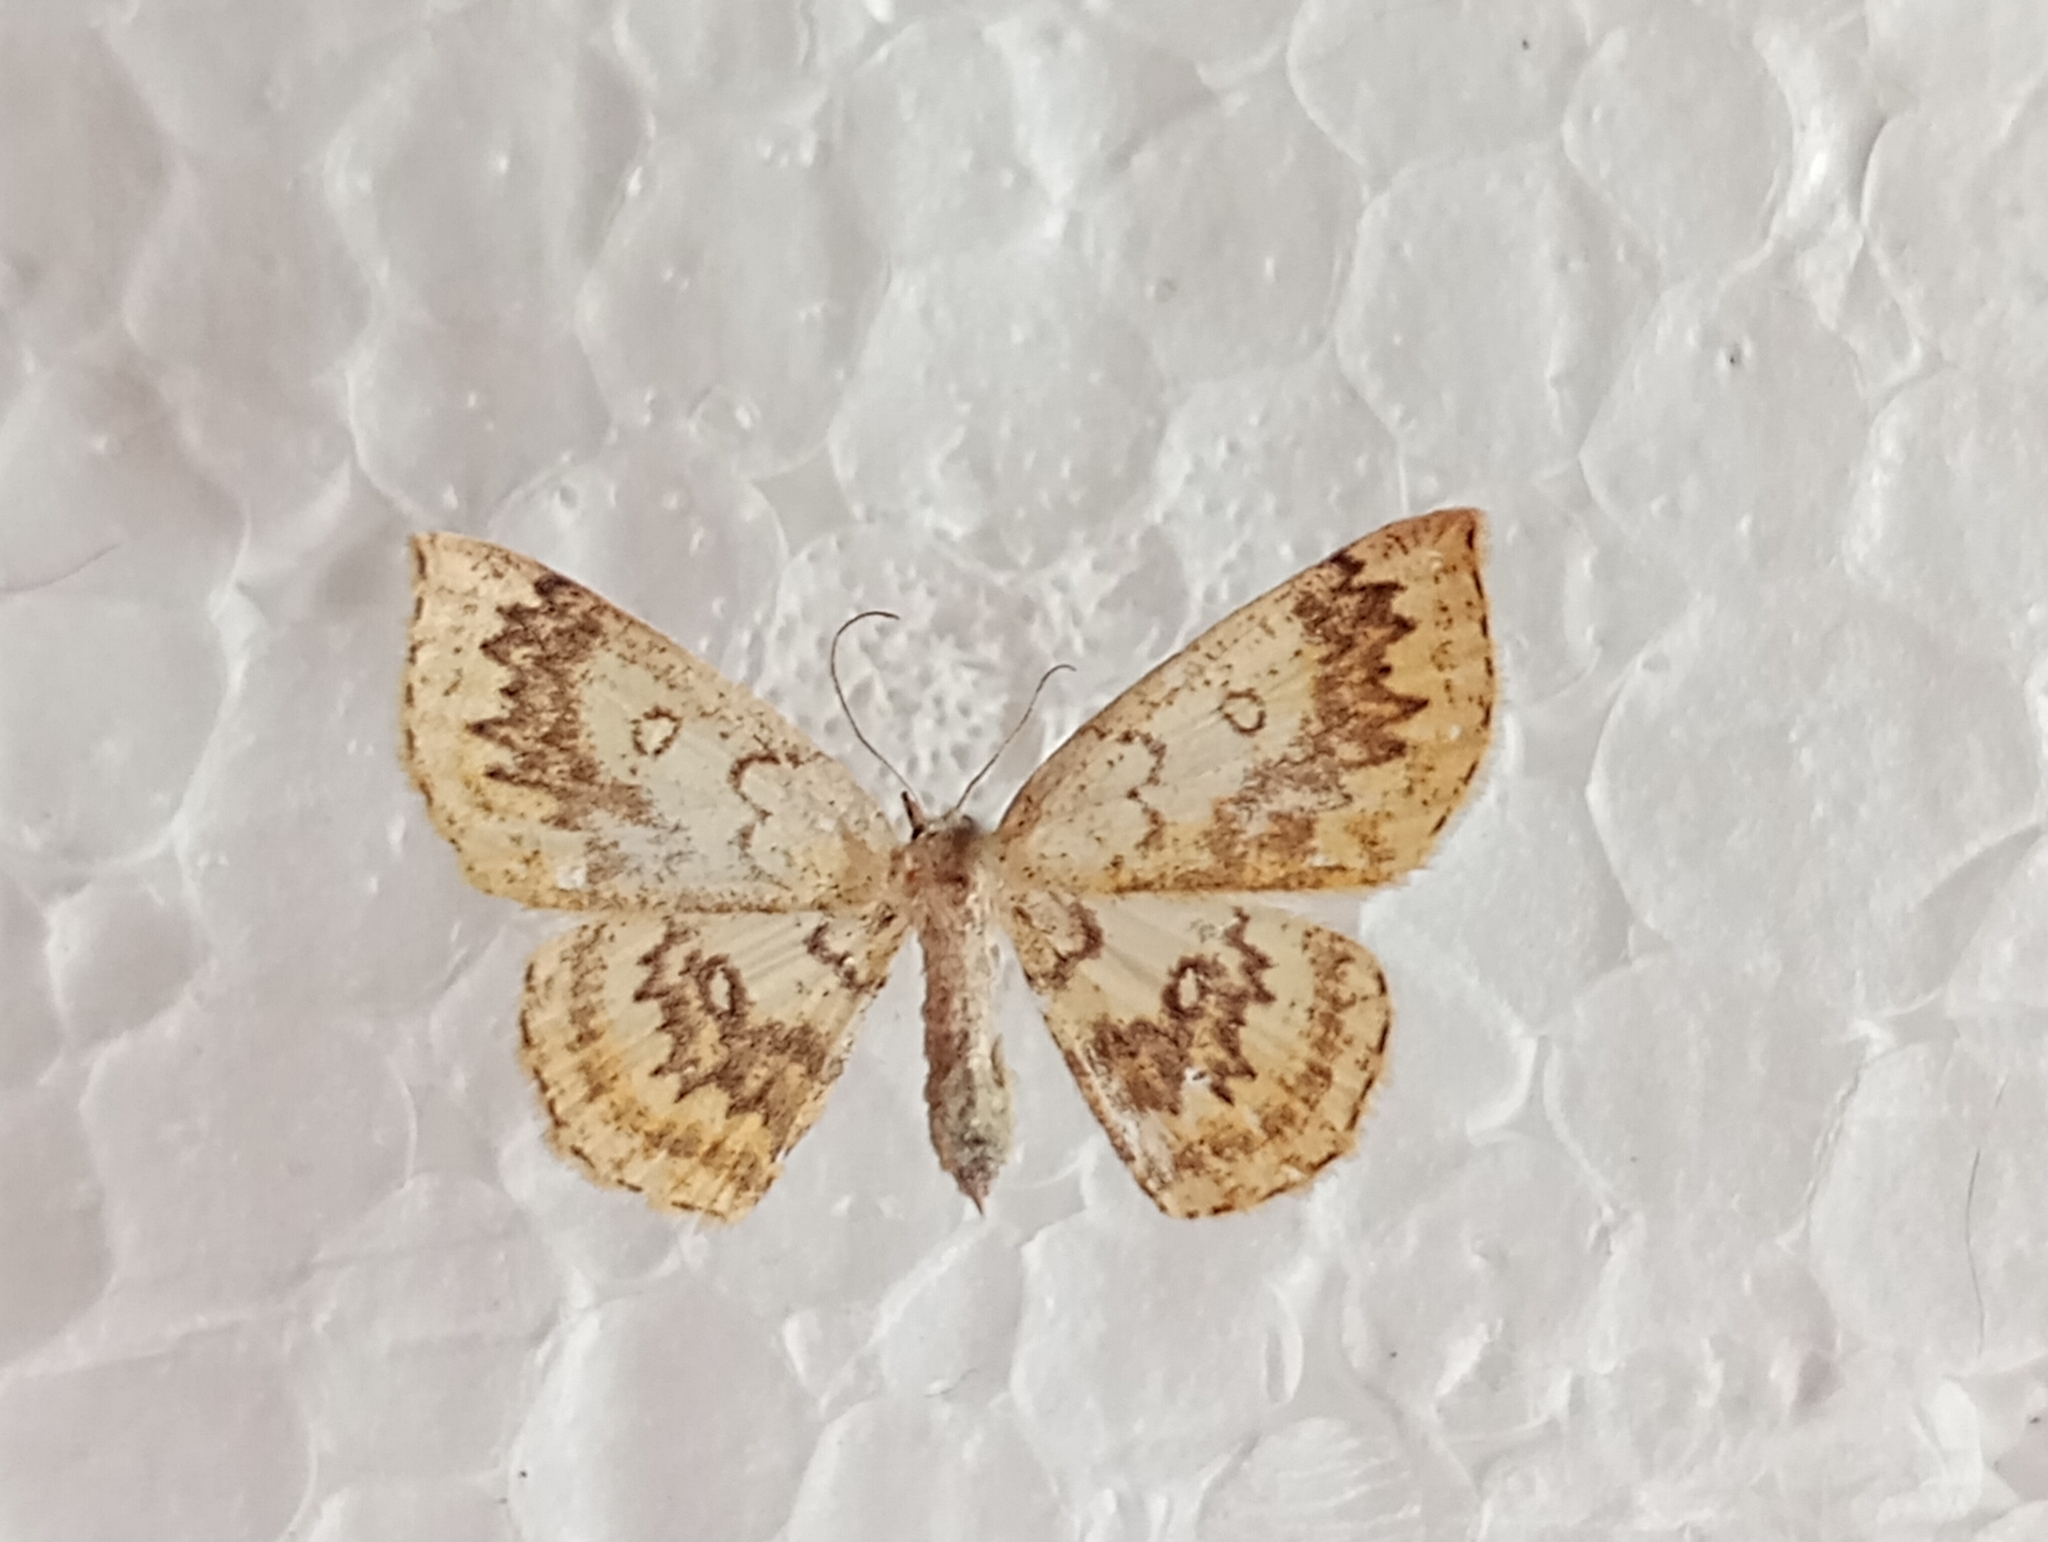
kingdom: Animalia
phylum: Arthropoda
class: Insecta
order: Lepidoptera
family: Geometridae
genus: Cyclophora
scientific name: Cyclophora annularia
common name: Mocha
